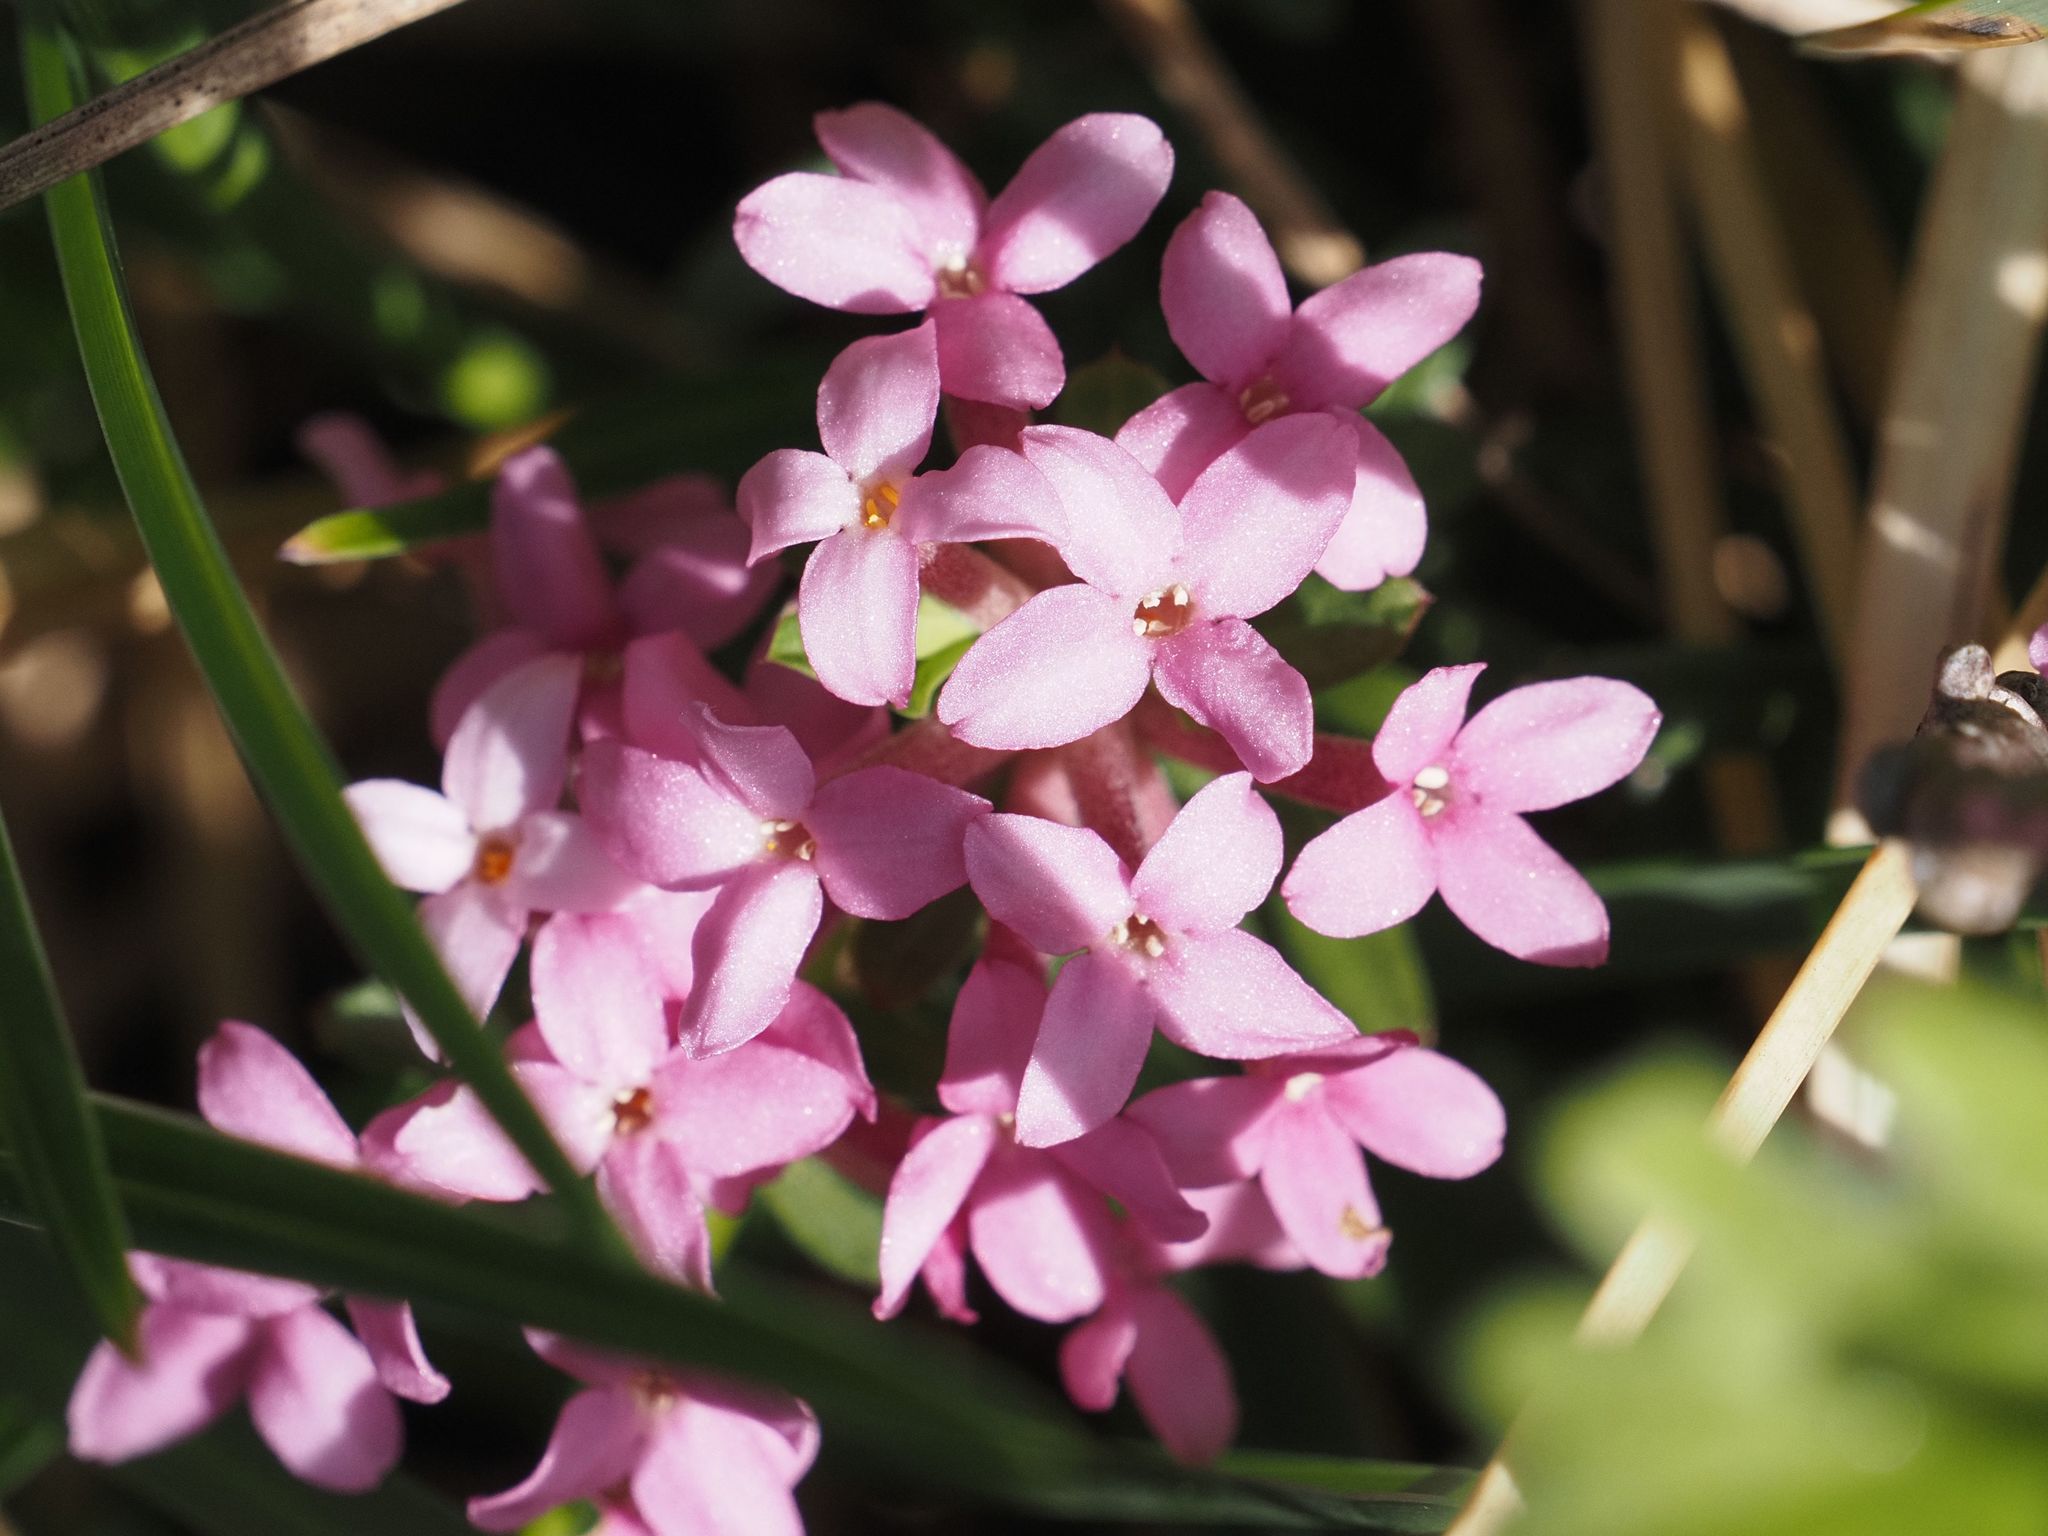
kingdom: Plantae
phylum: Tracheophyta
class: Magnoliopsida
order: Malvales
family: Thymelaeaceae
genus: Daphne
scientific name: Daphne cneorum
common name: Garland-flower
